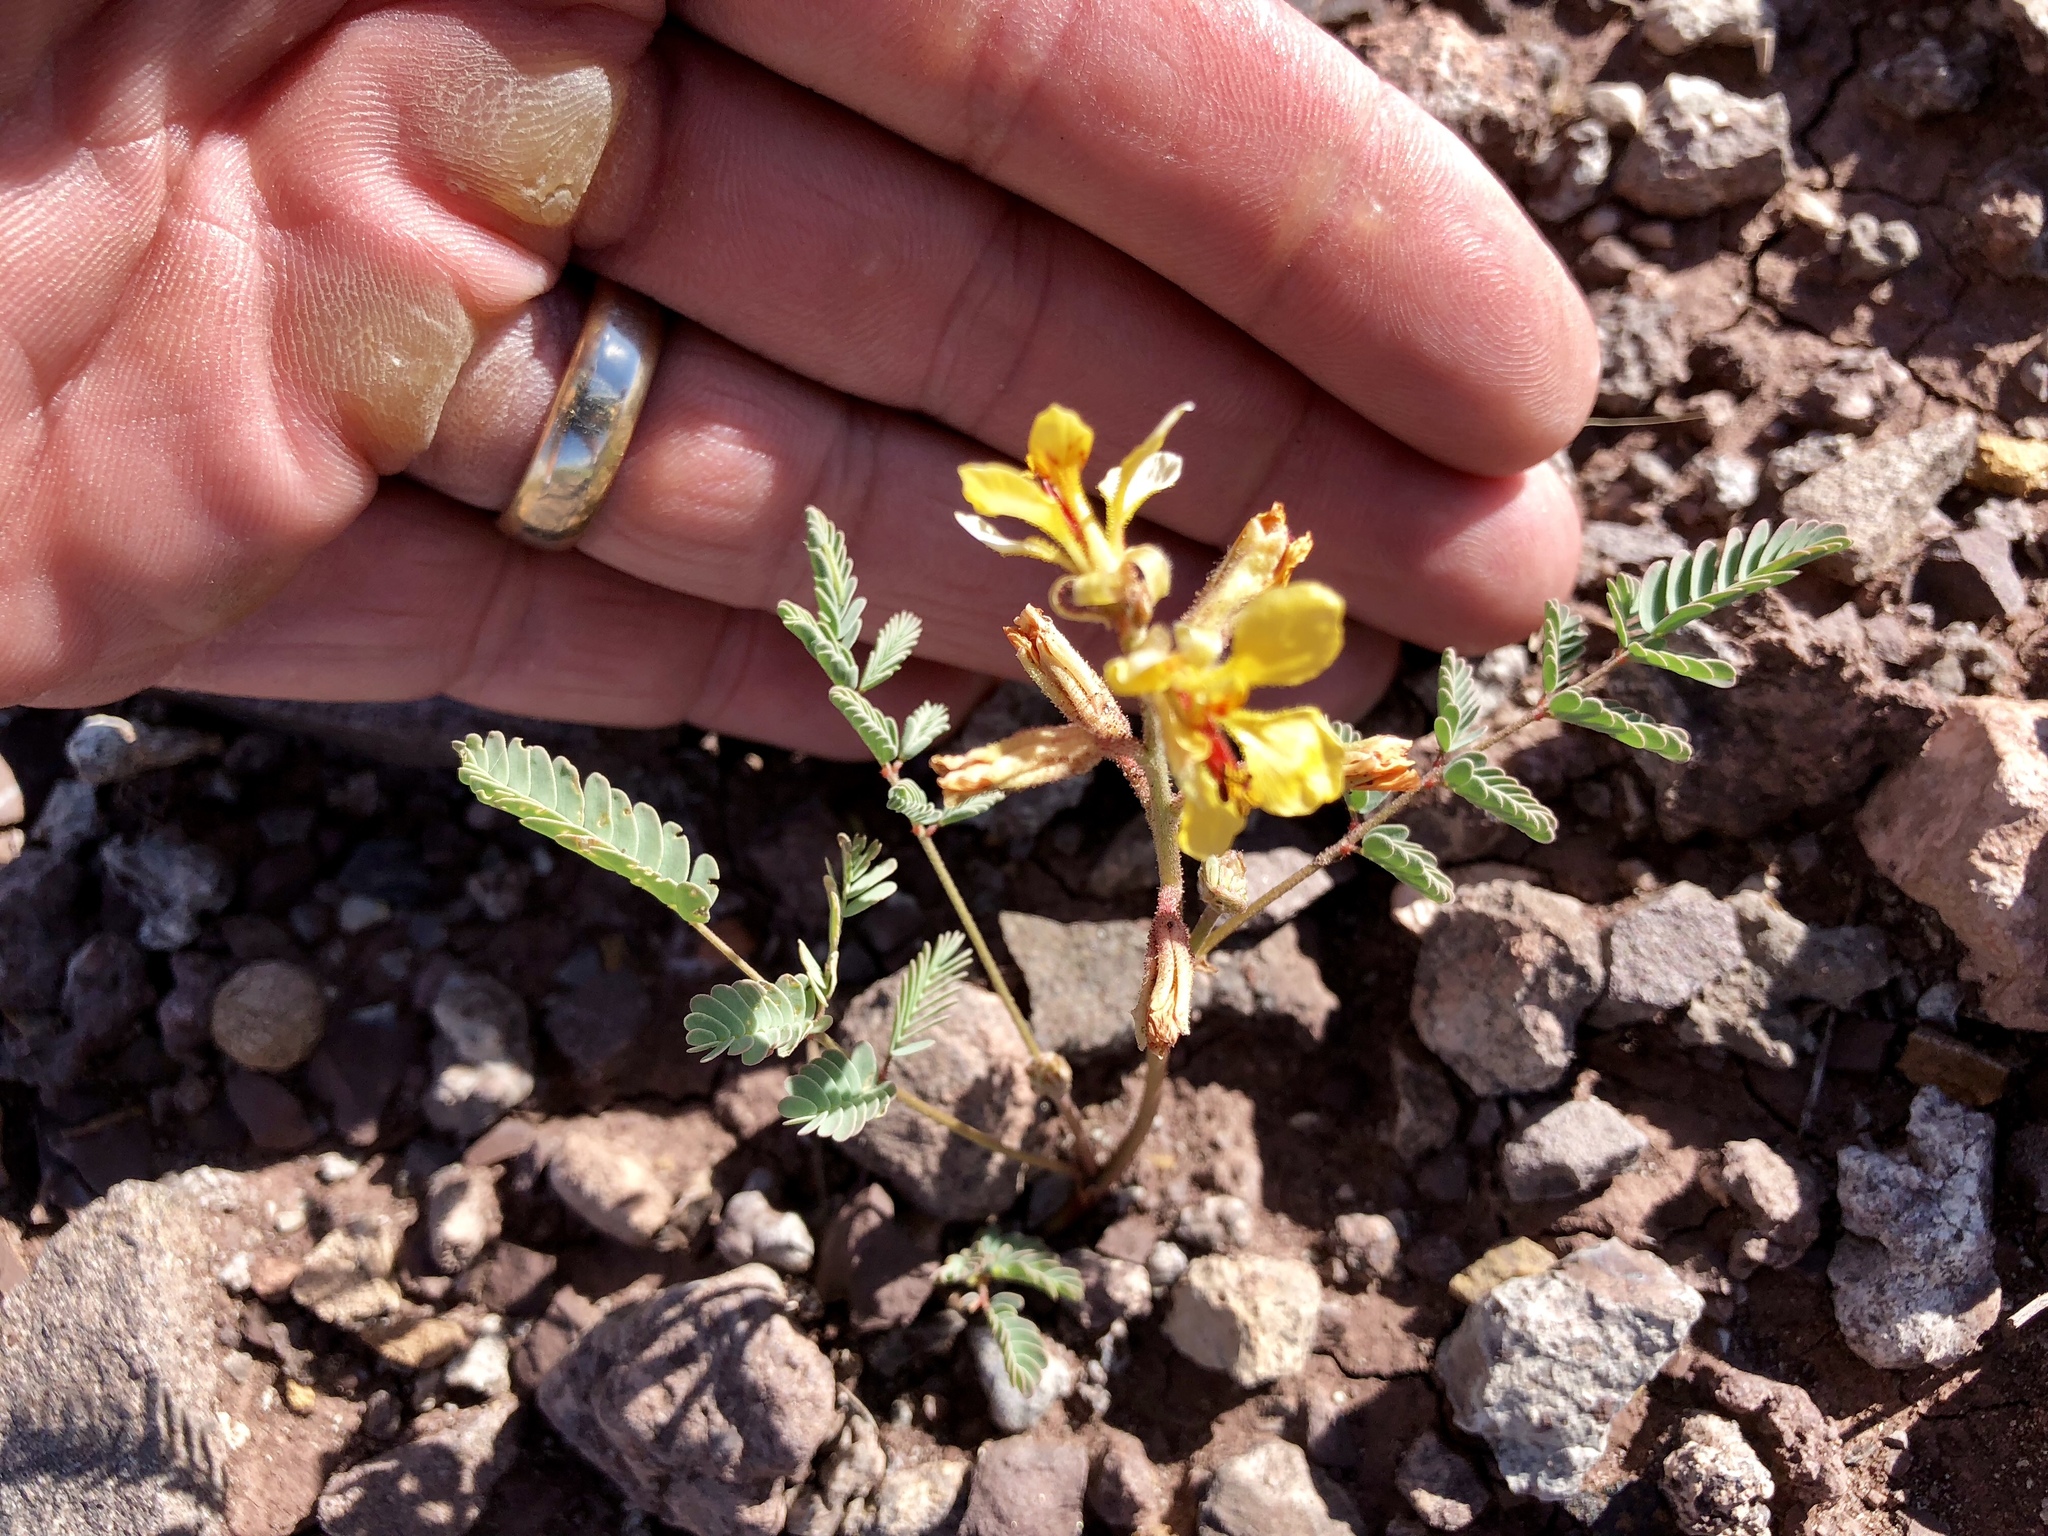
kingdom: Plantae
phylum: Tracheophyta
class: Magnoliopsida
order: Fabales
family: Fabaceae
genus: Hoffmannseggia
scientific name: Hoffmannseggia glauca
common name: Pignut
